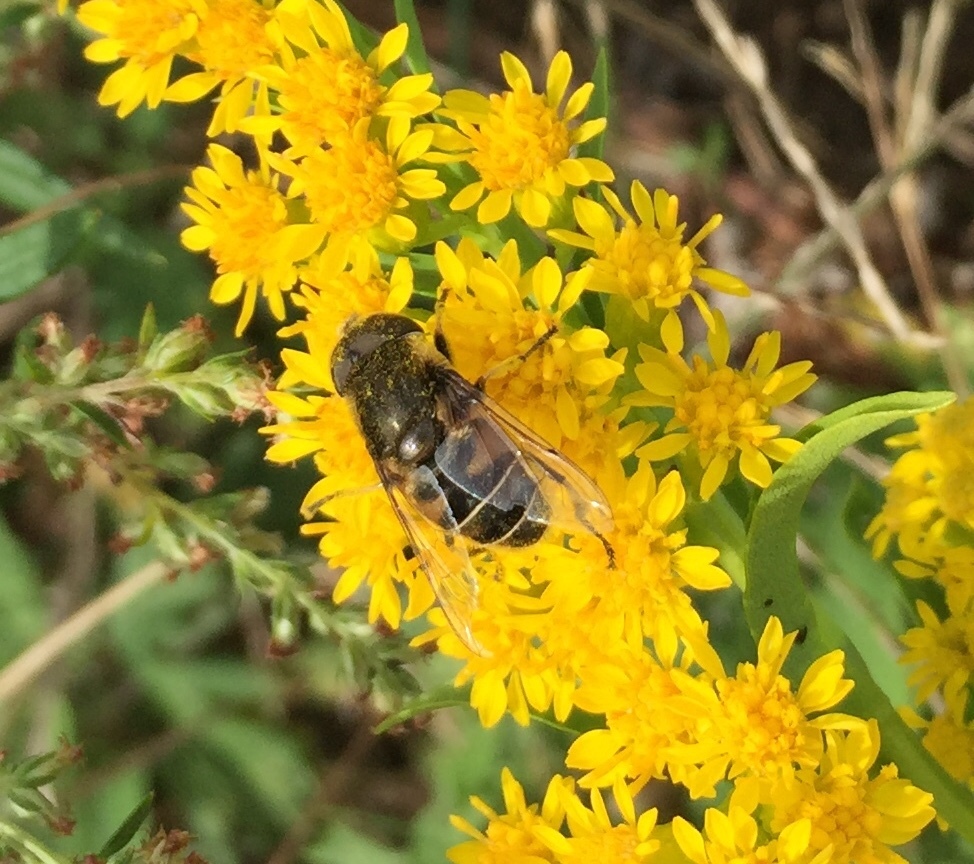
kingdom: Animalia
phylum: Arthropoda
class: Insecta
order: Diptera
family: Syrphidae
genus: Eristalis
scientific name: Eristalis dimidiata
